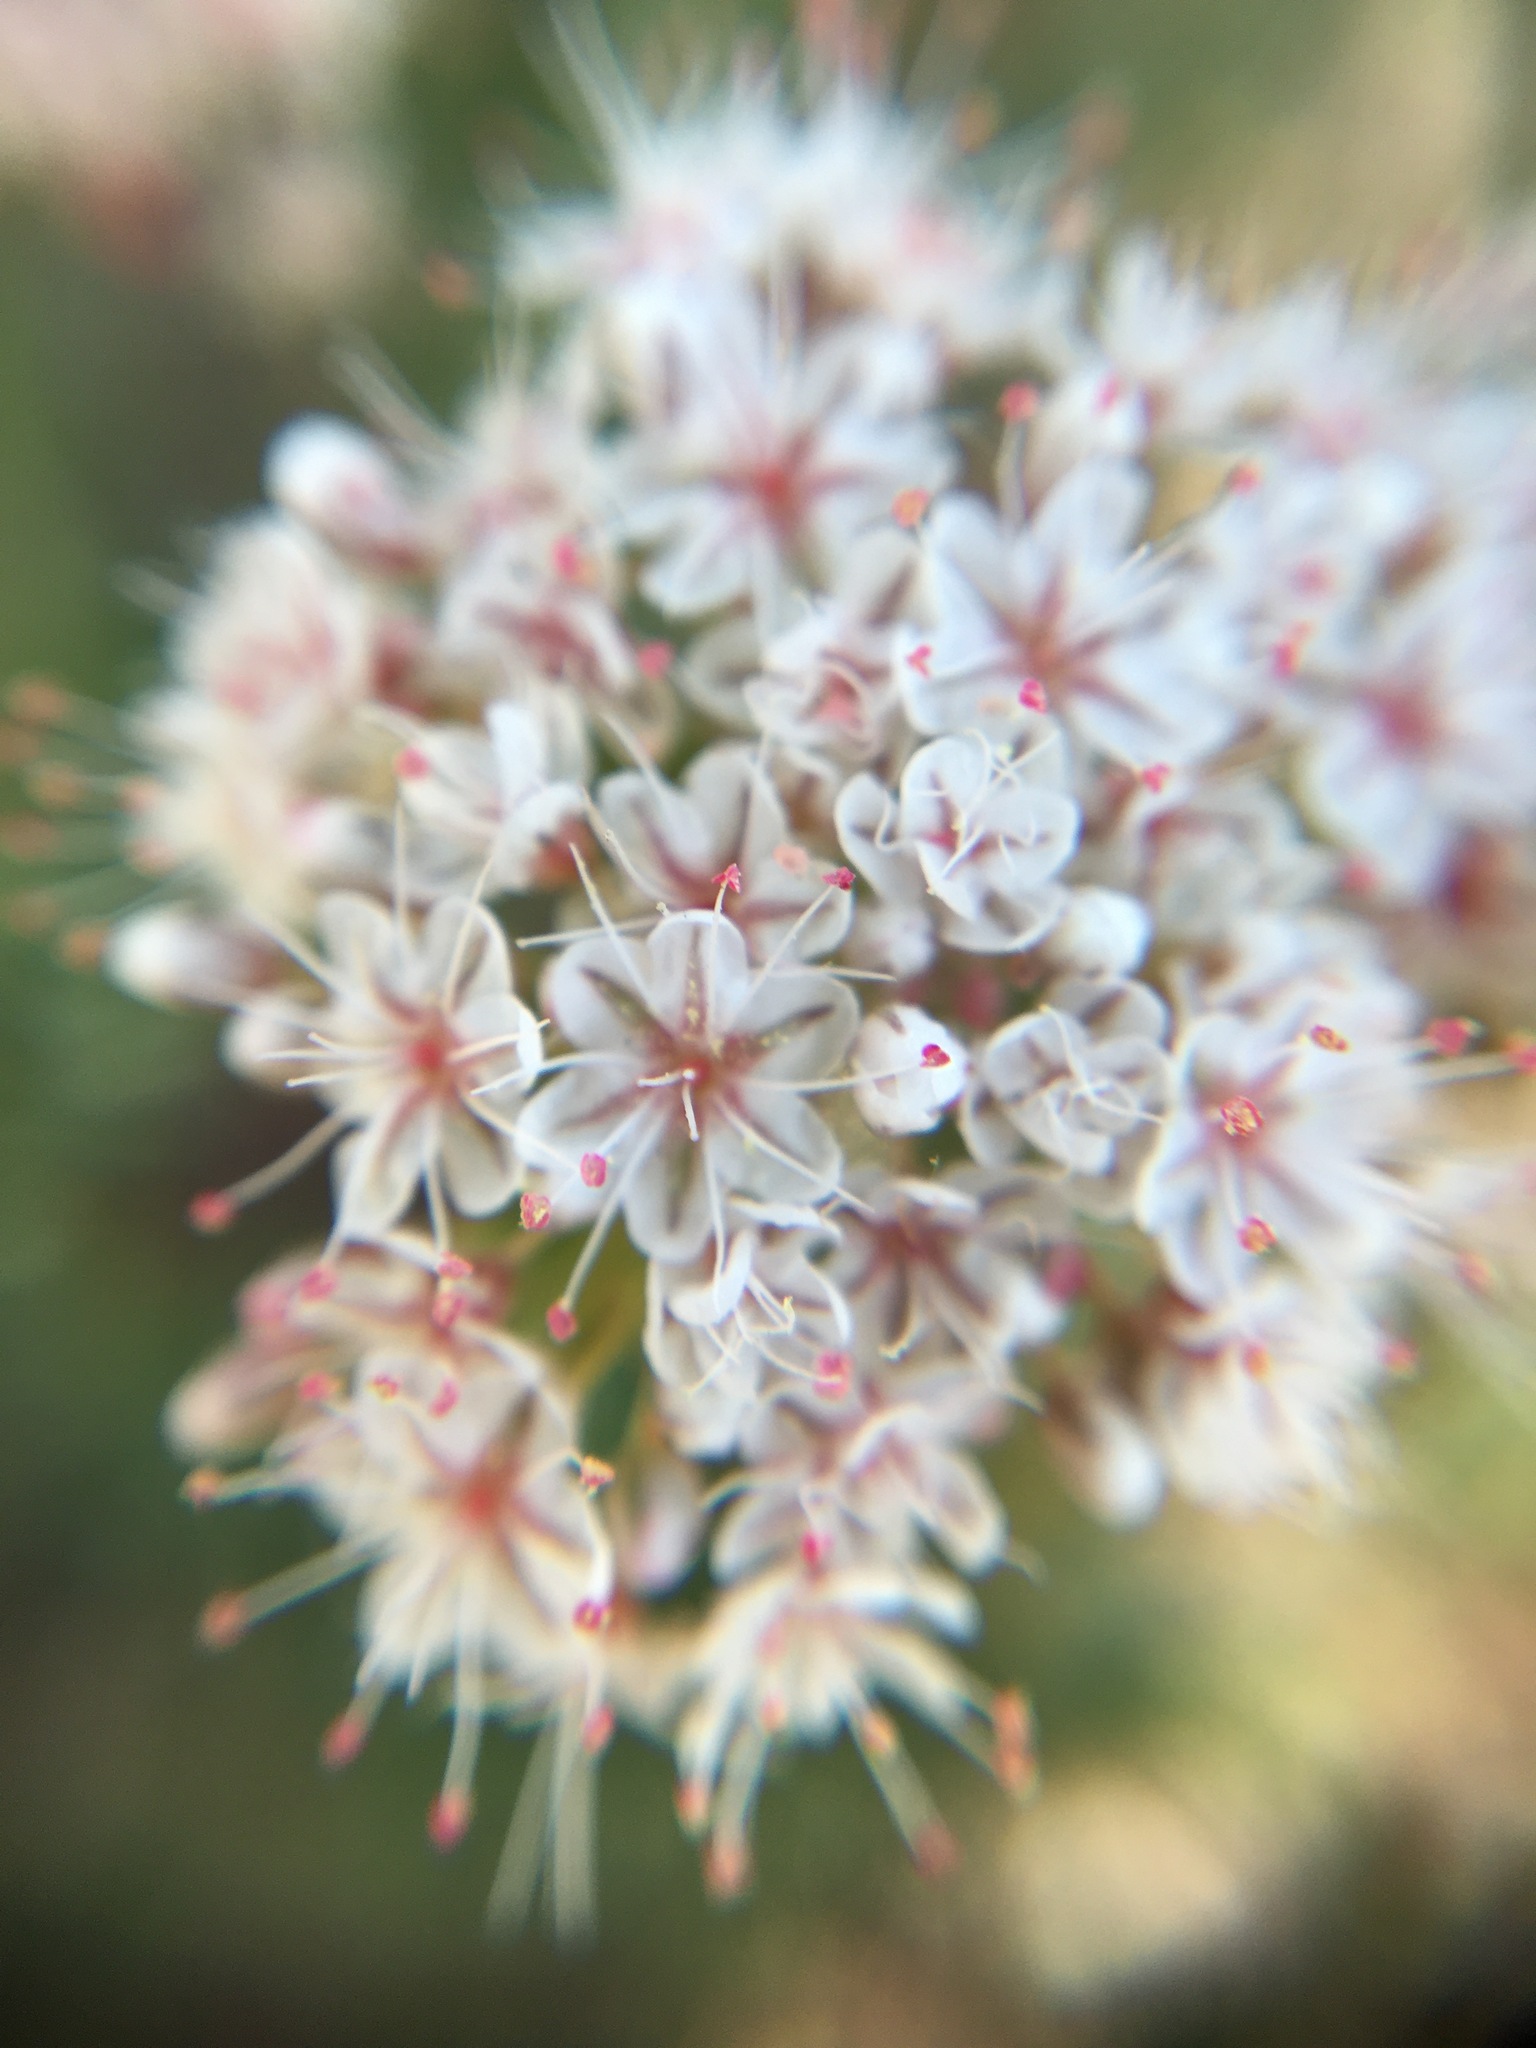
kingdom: Plantae
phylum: Tracheophyta
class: Magnoliopsida
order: Caryophyllales
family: Polygonaceae
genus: Eriogonum
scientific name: Eriogonum fasciculatum
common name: California wild buckwheat
